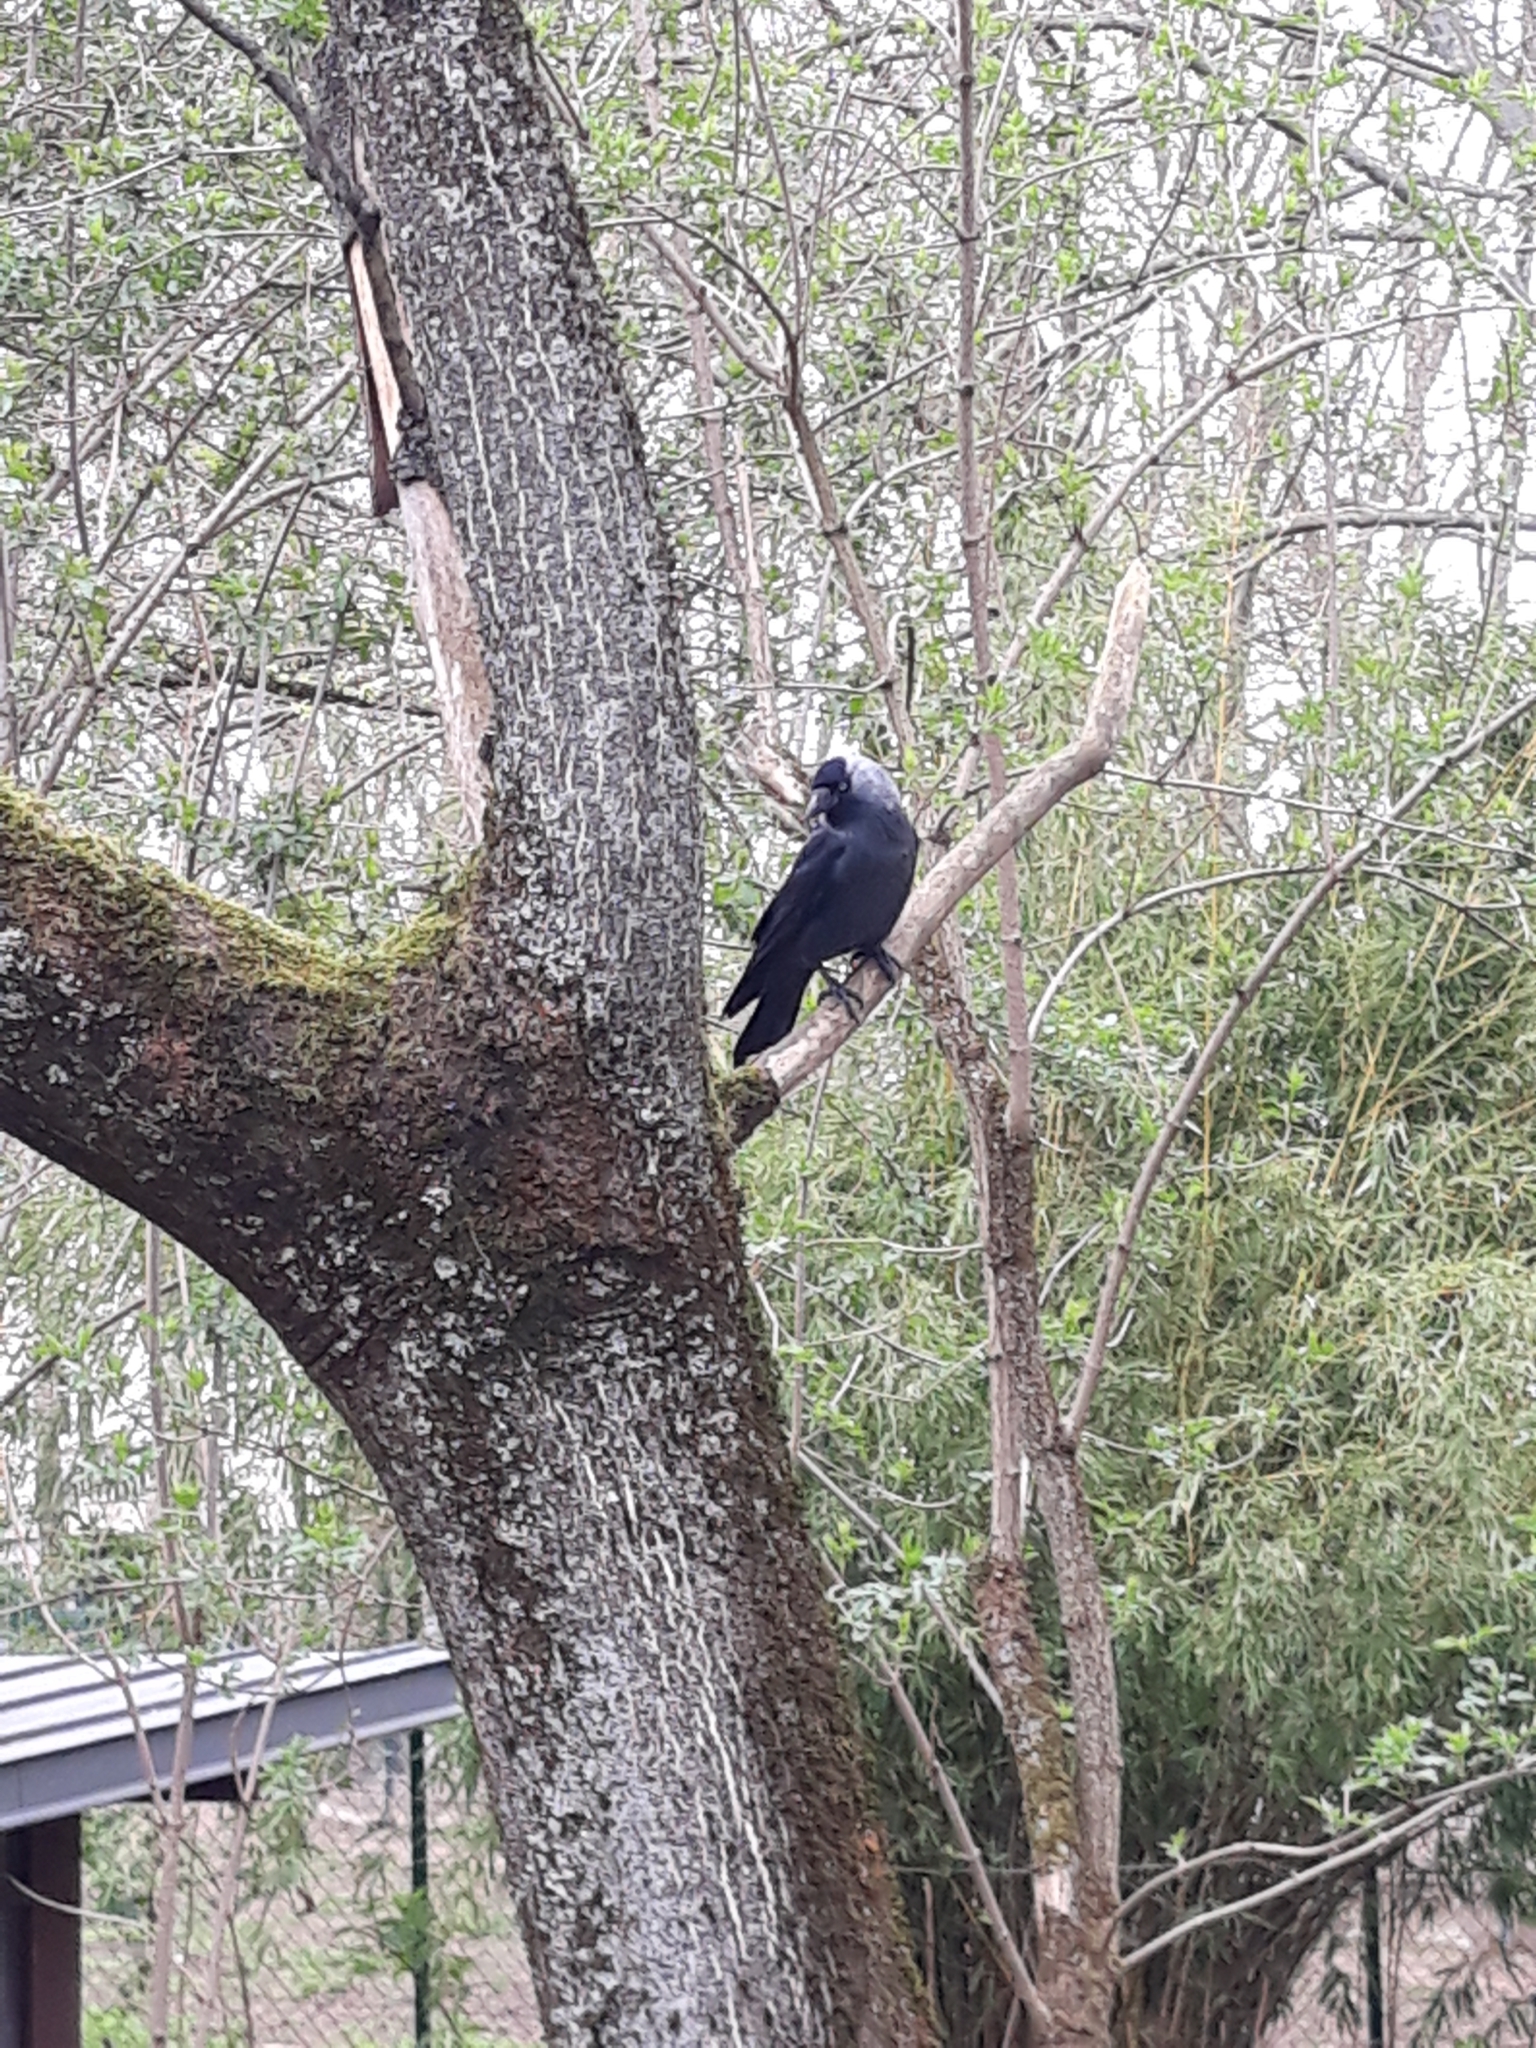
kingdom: Animalia
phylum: Chordata
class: Aves
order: Passeriformes
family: Corvidae
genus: Coloeus
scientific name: Coloeus monedula
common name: Western jackdaw
